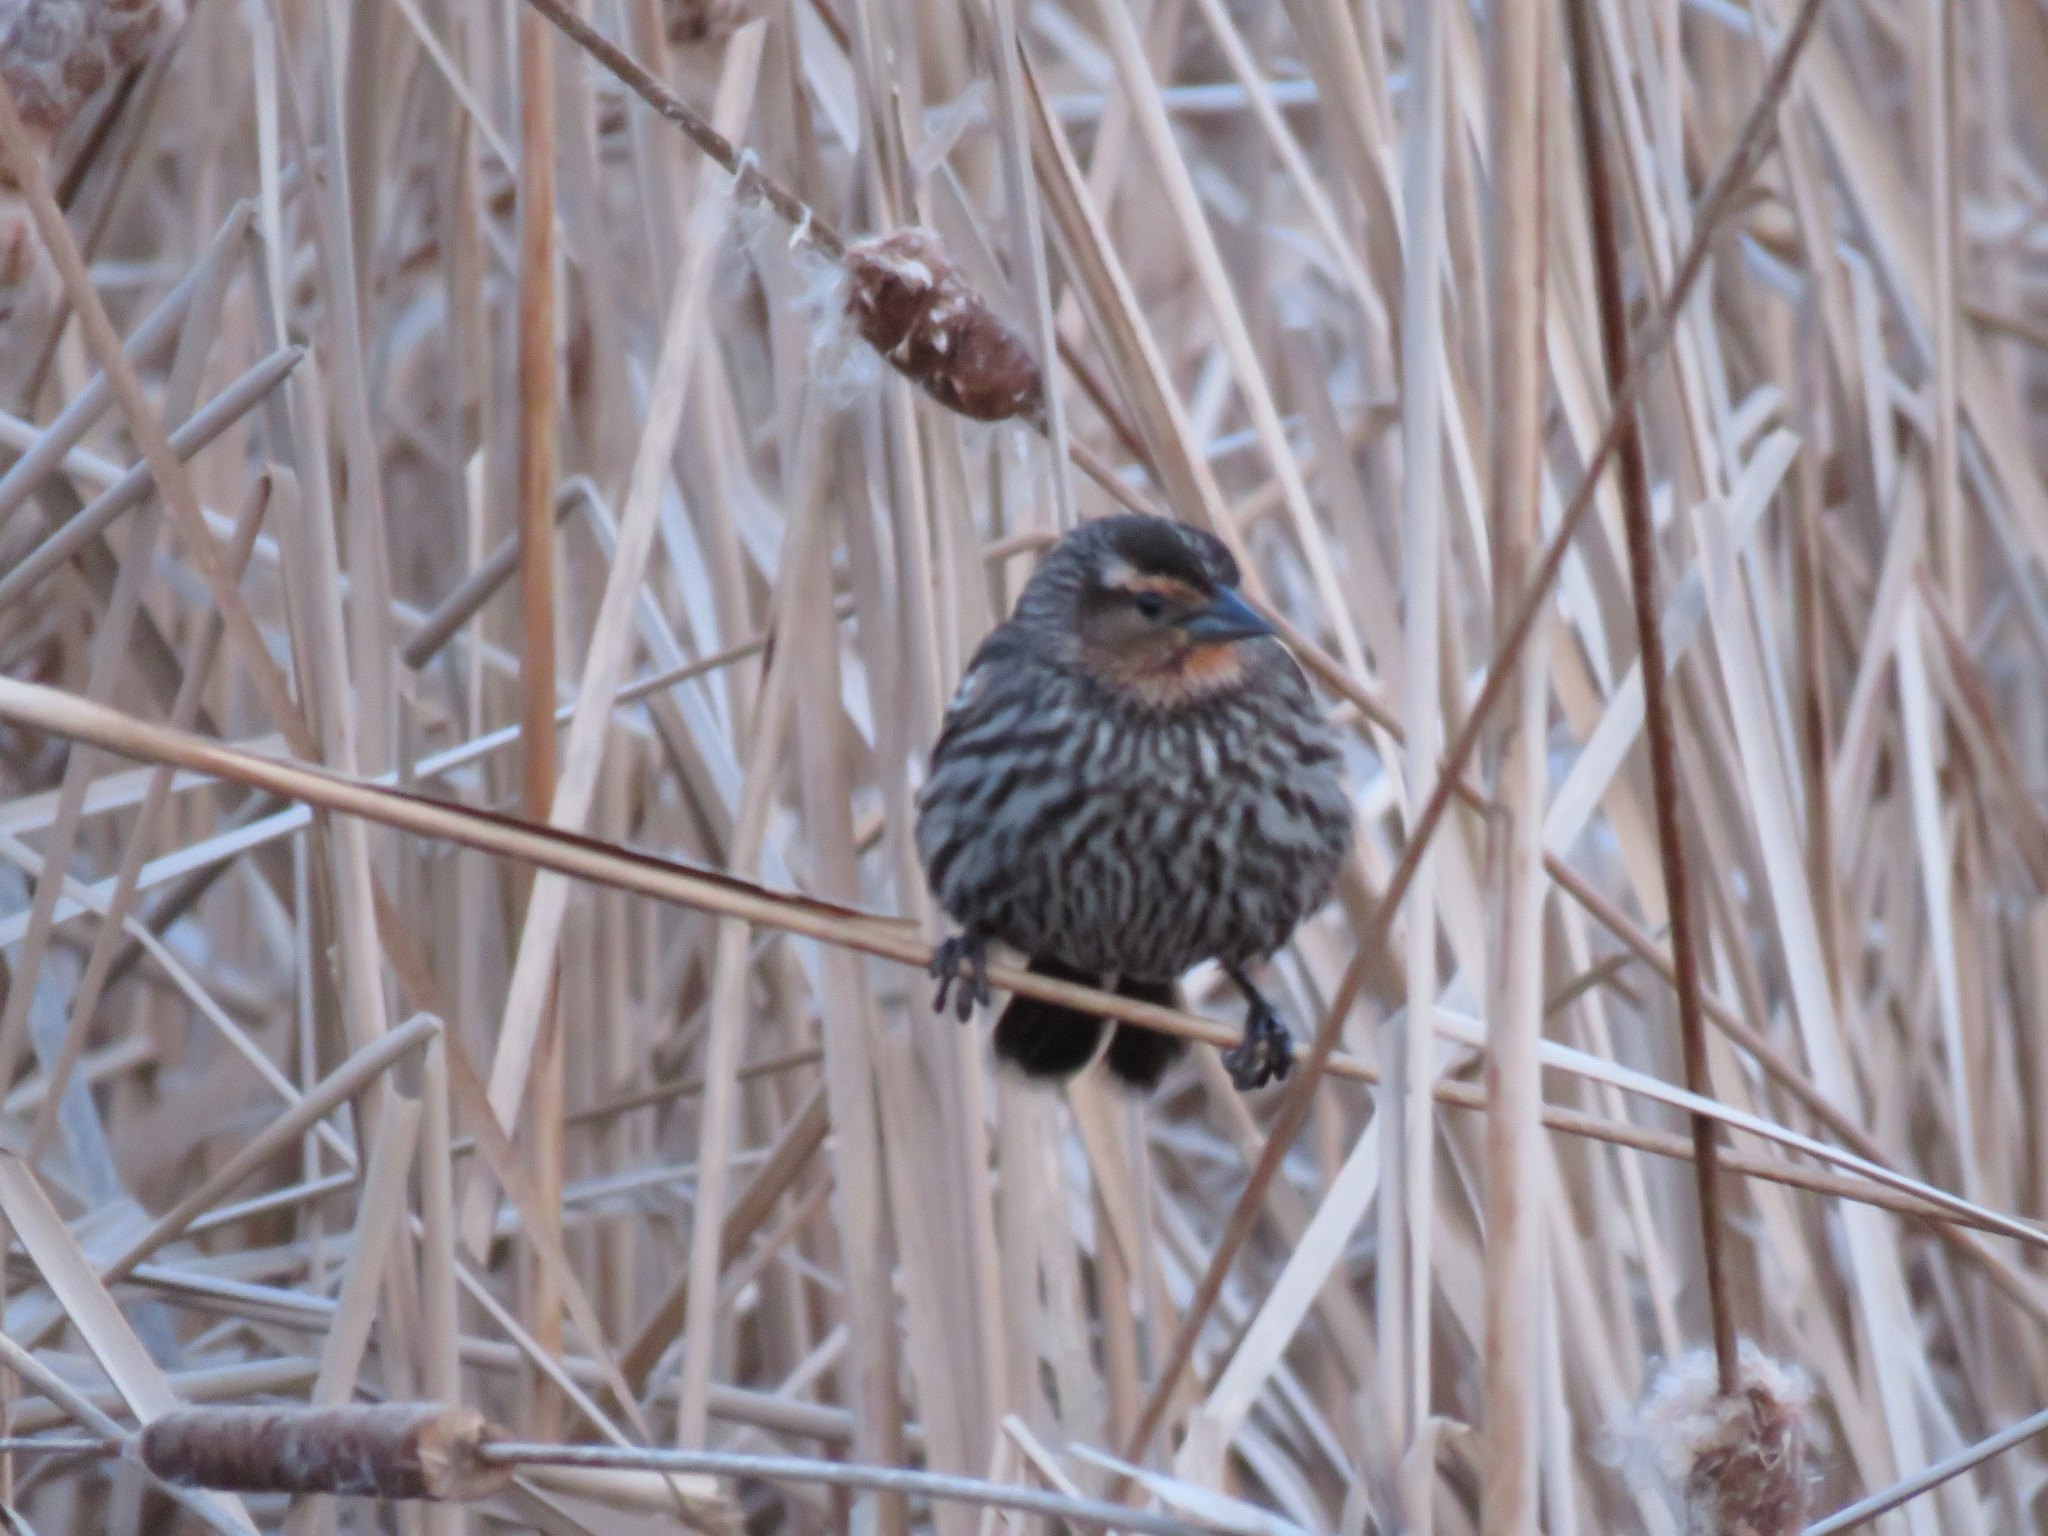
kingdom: Animalia
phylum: Chordata
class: Aves
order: Passeriformes
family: Icteridae
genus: Agelaius
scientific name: Agelaius phoeniceus
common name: Red-winged blackbird
